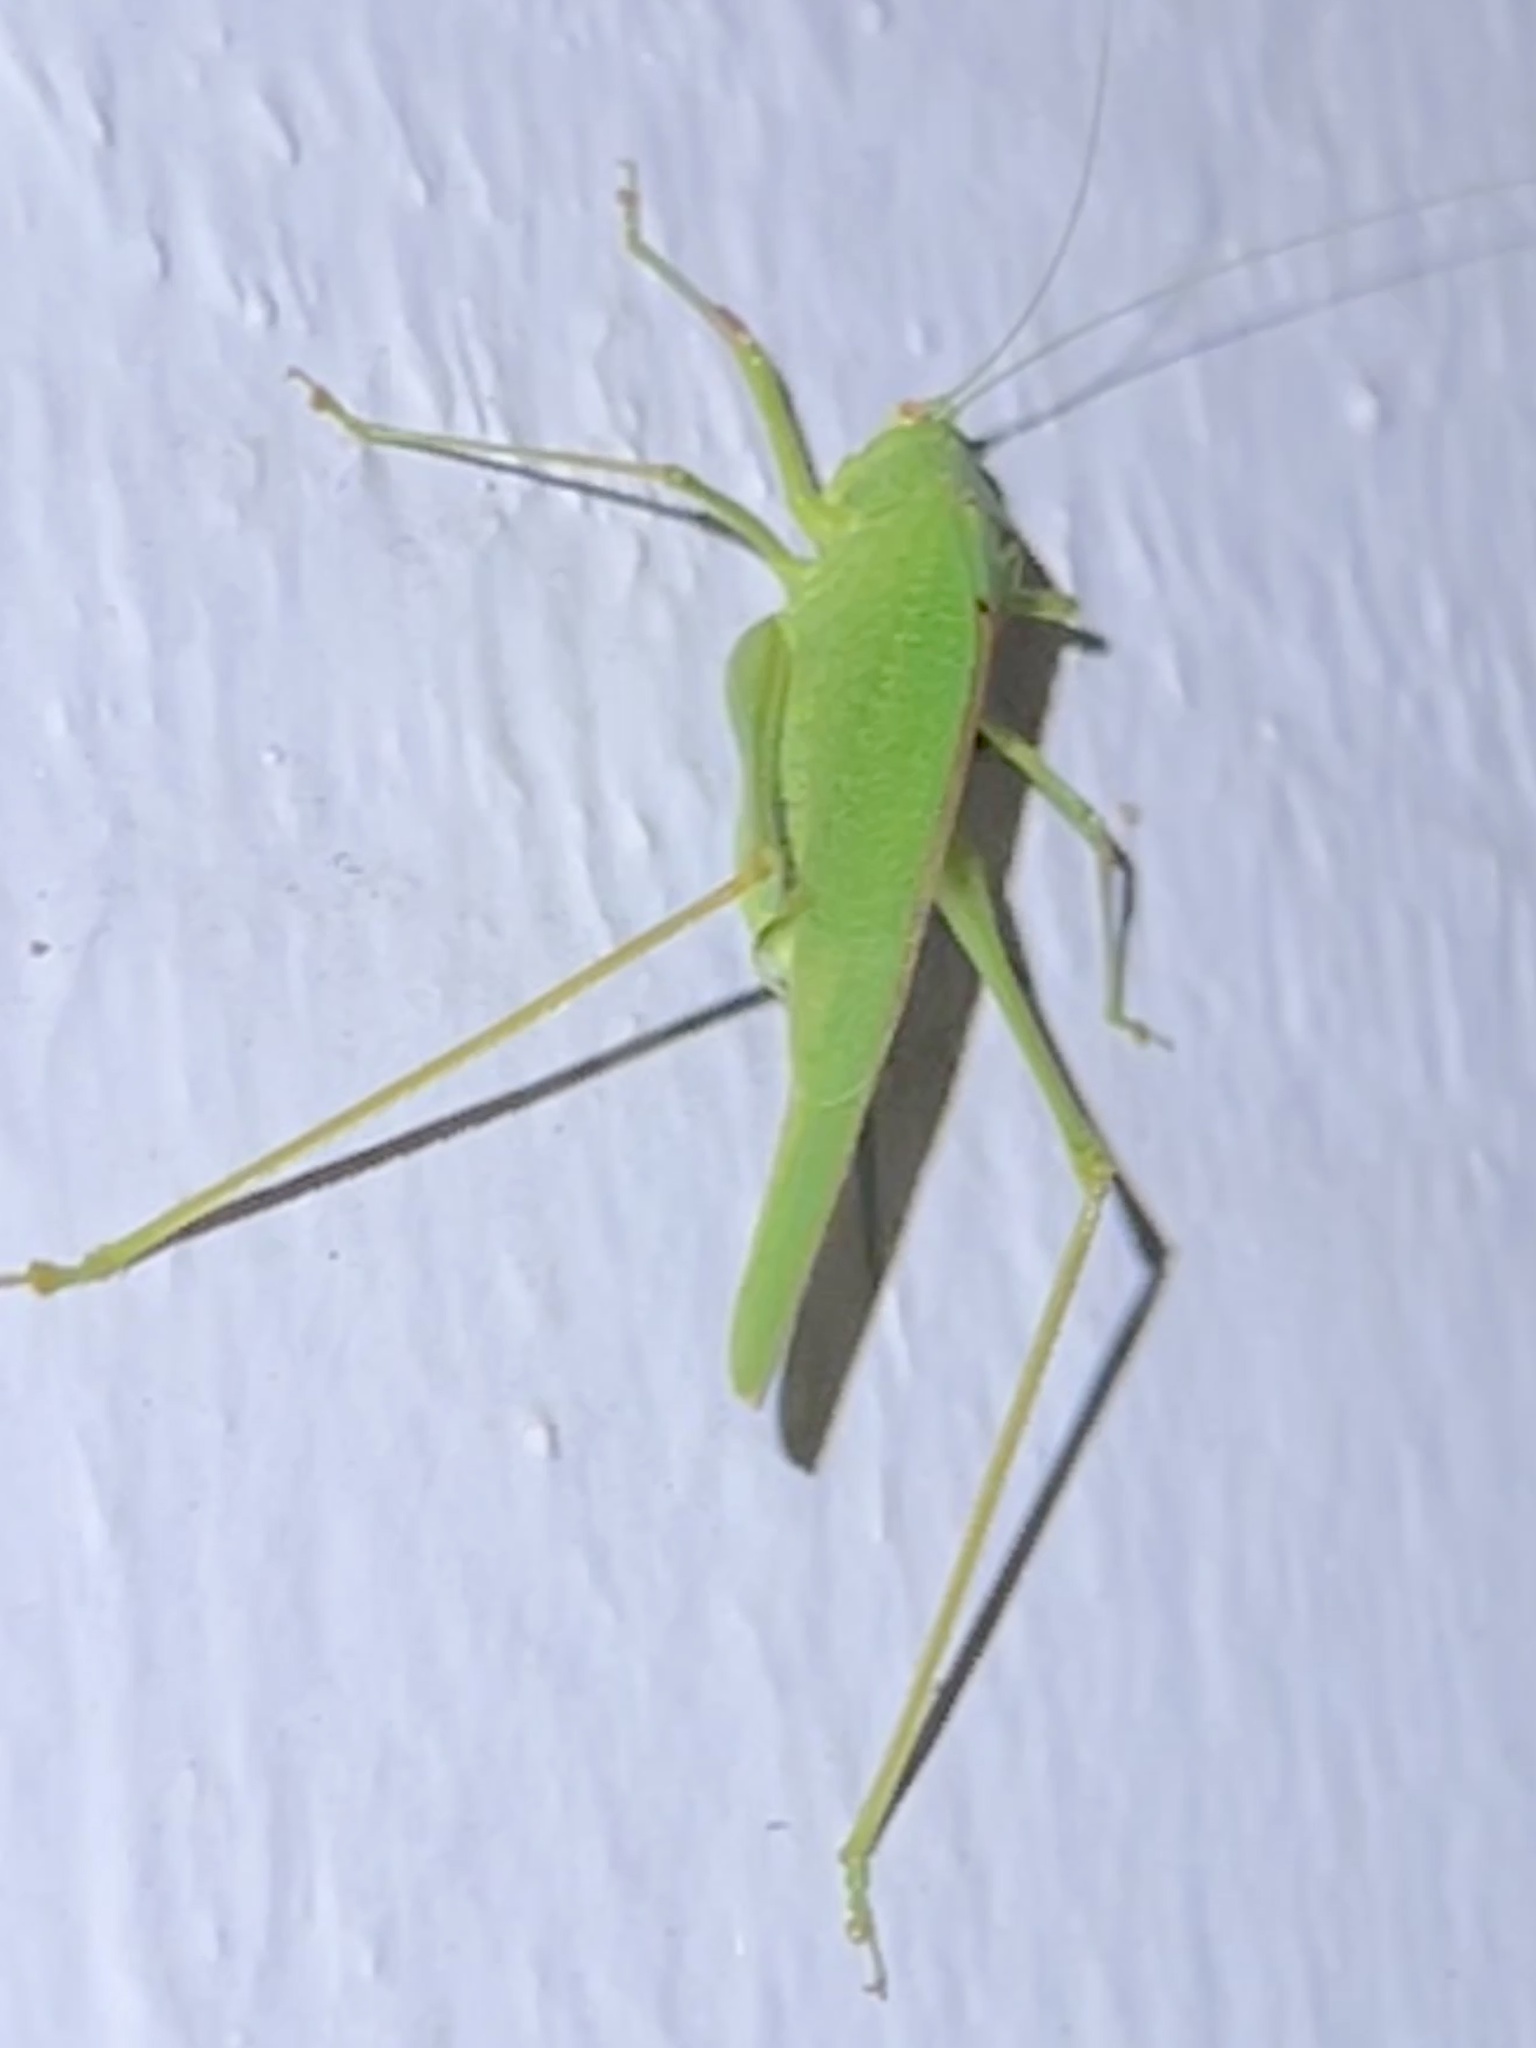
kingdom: Animalia
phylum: Arthropoda
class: Insecta
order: Orthoptera
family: Tettigoniidae
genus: Phaneroptera
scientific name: Phaneroptera nana
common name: Southern sickle bush-cricket
